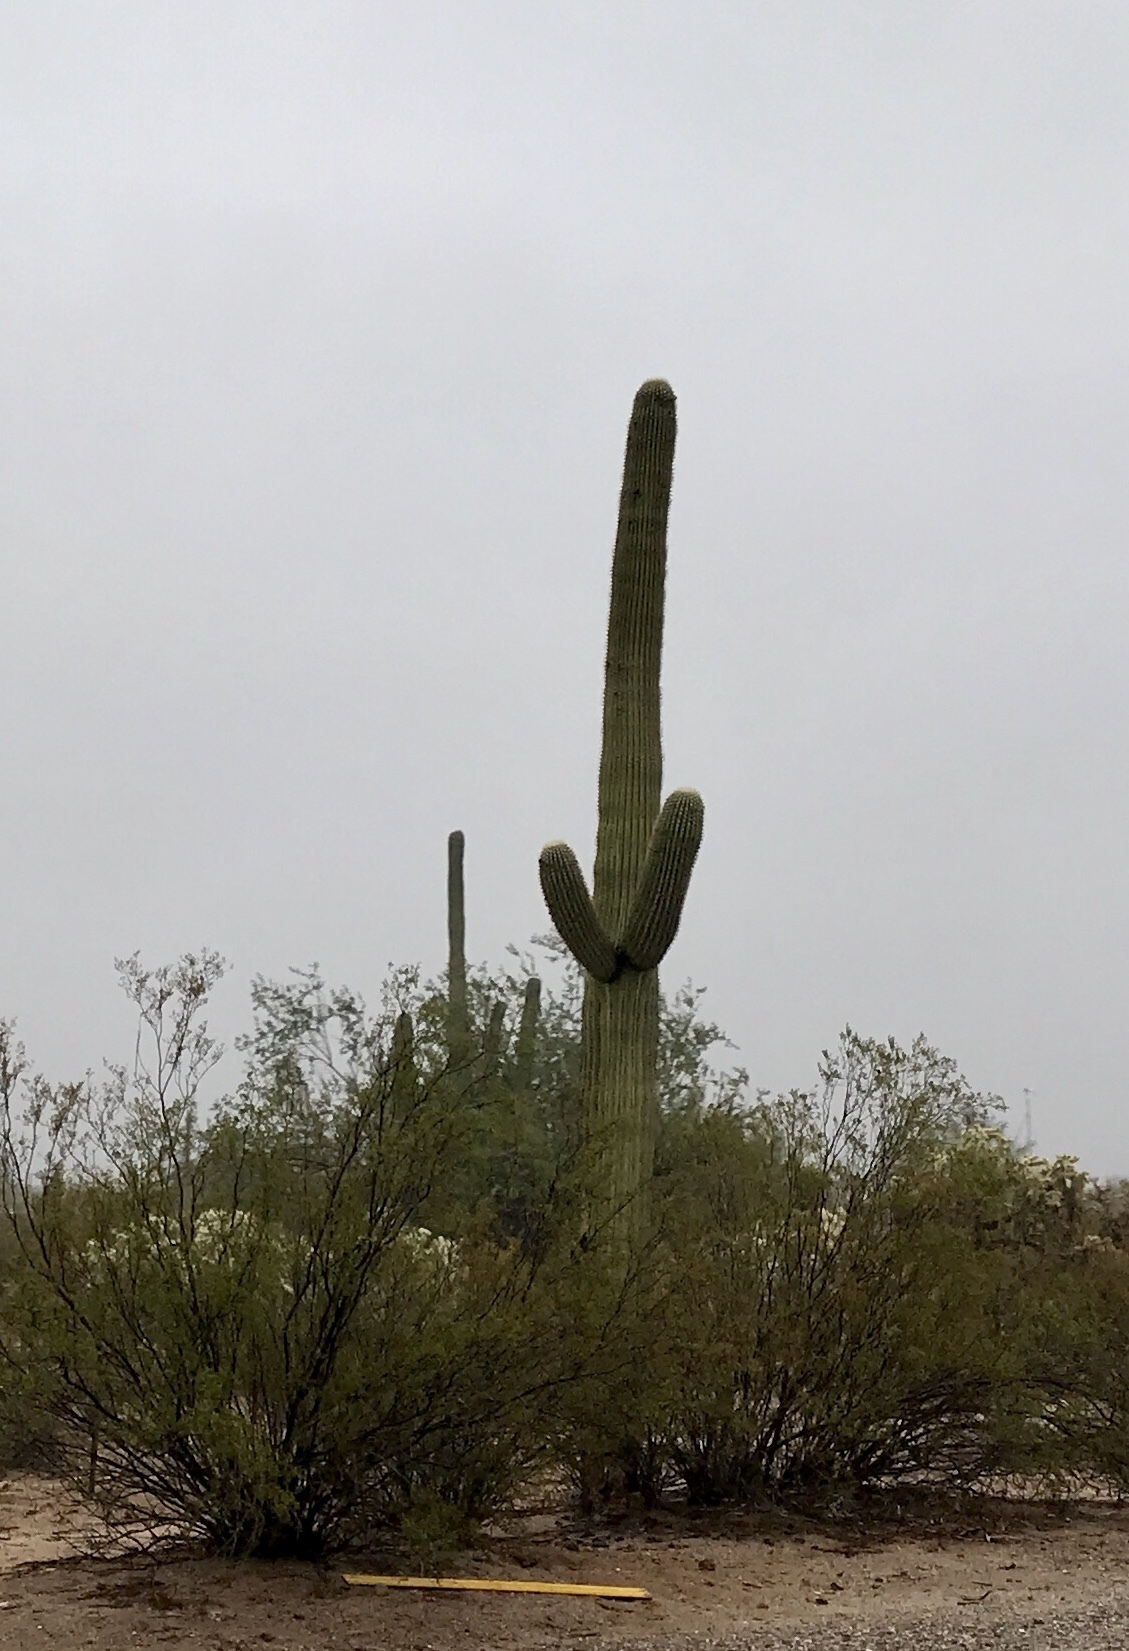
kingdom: Plantae
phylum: Tracheophyta
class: Magnoliopsida
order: Caryophyllales
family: Cactaceae
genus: Carnegiea
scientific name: Carnegiea gigantea
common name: Saguaro
